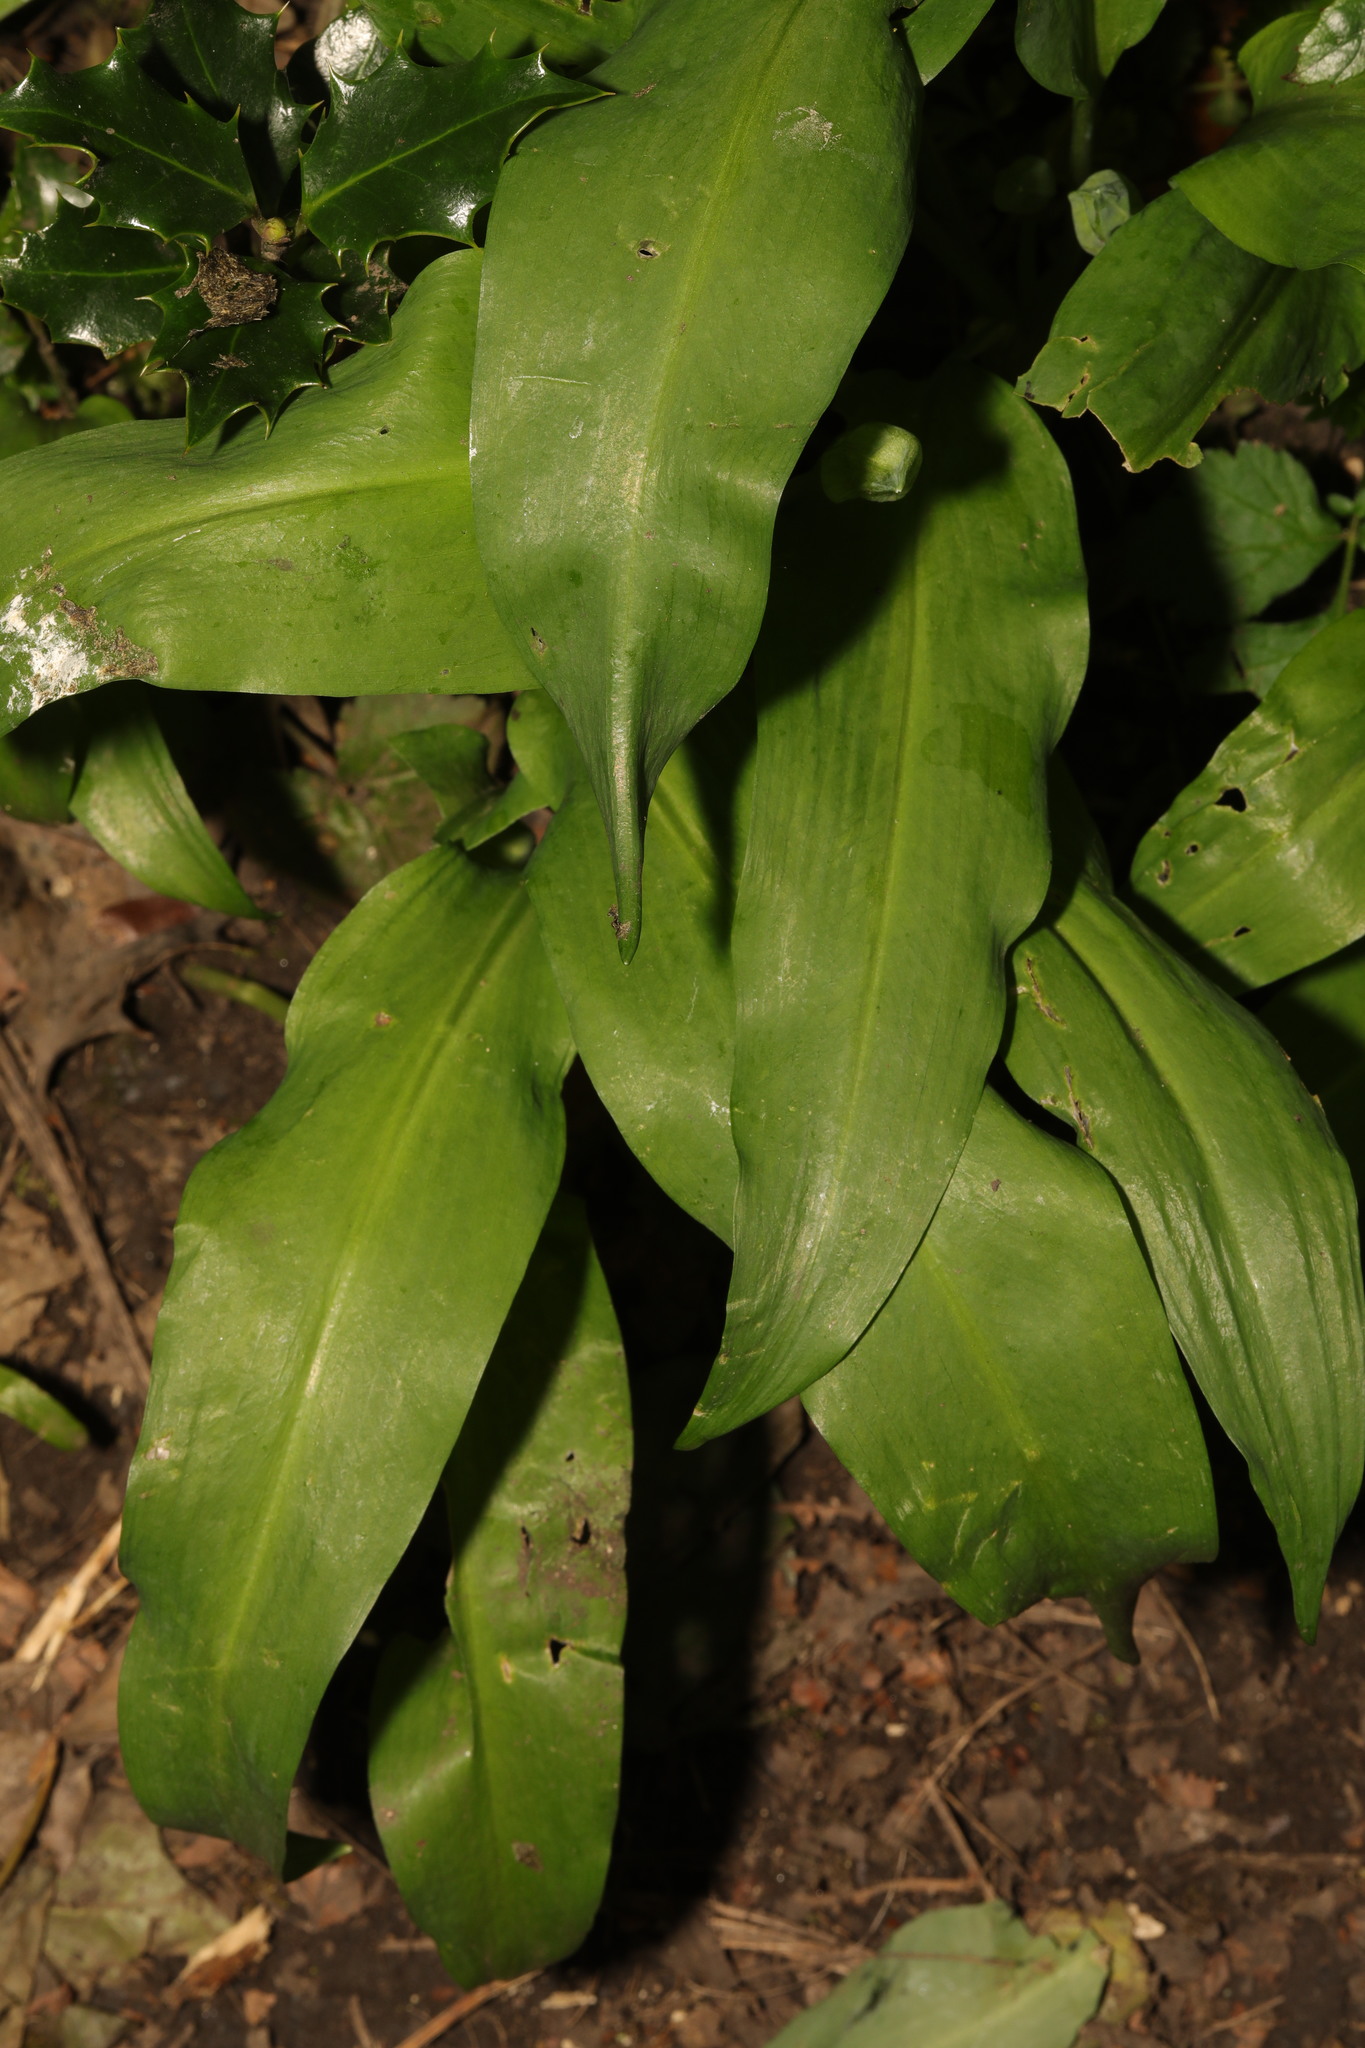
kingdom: Plantae
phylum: Tracheophyta
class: Liliopsida
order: Asparagales
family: Amaryllidaceae
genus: Allium
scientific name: Allium ursinum
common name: Ramsons
